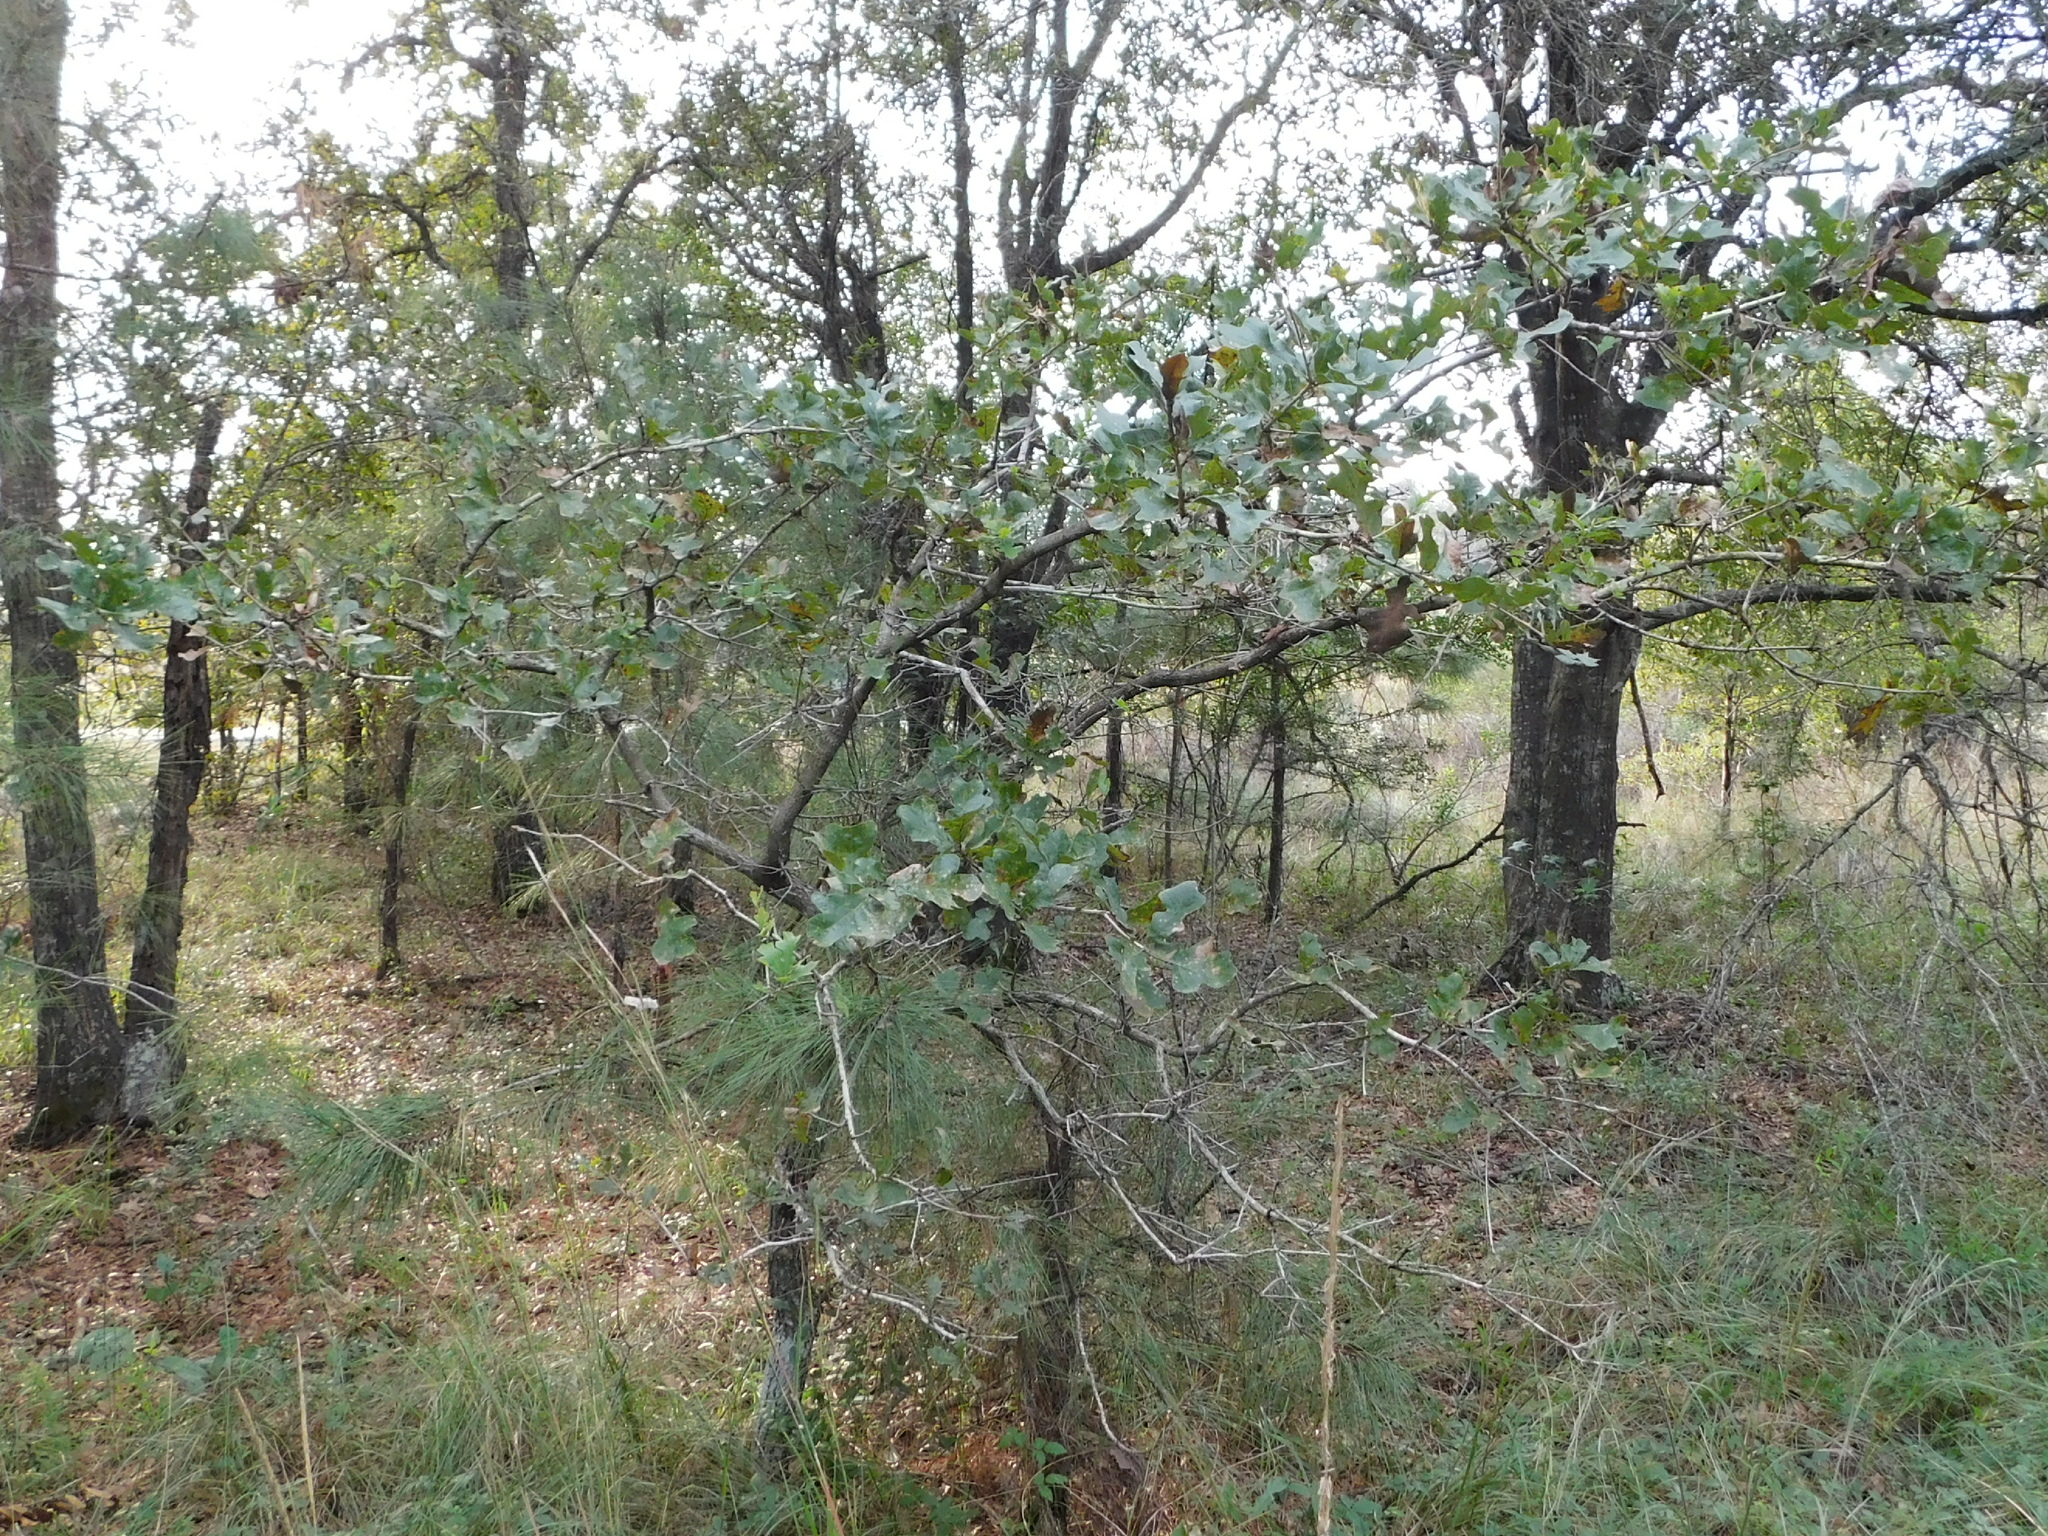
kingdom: Plantae
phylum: Tracheophyta
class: Magnoliopsida
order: Fagales
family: Fagaceae
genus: Quercus
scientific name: Quercus margaretiae
